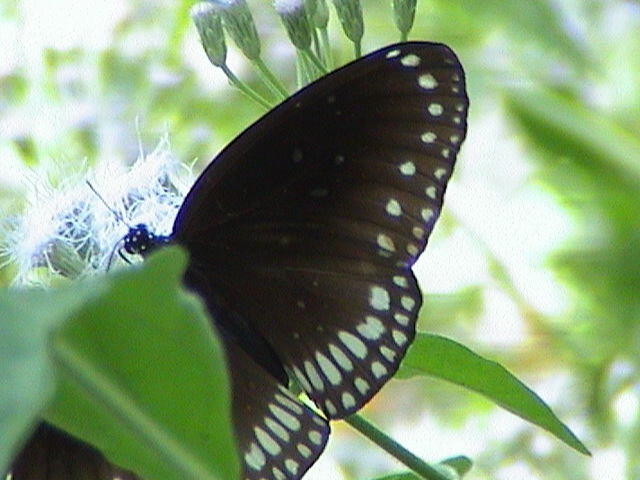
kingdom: Animalia
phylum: Arthropoda
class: Insecta
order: Lepidoptera
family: Nymphalidae
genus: Euploea
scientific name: Euploea sylvester
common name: Double-branded crow butterfly
